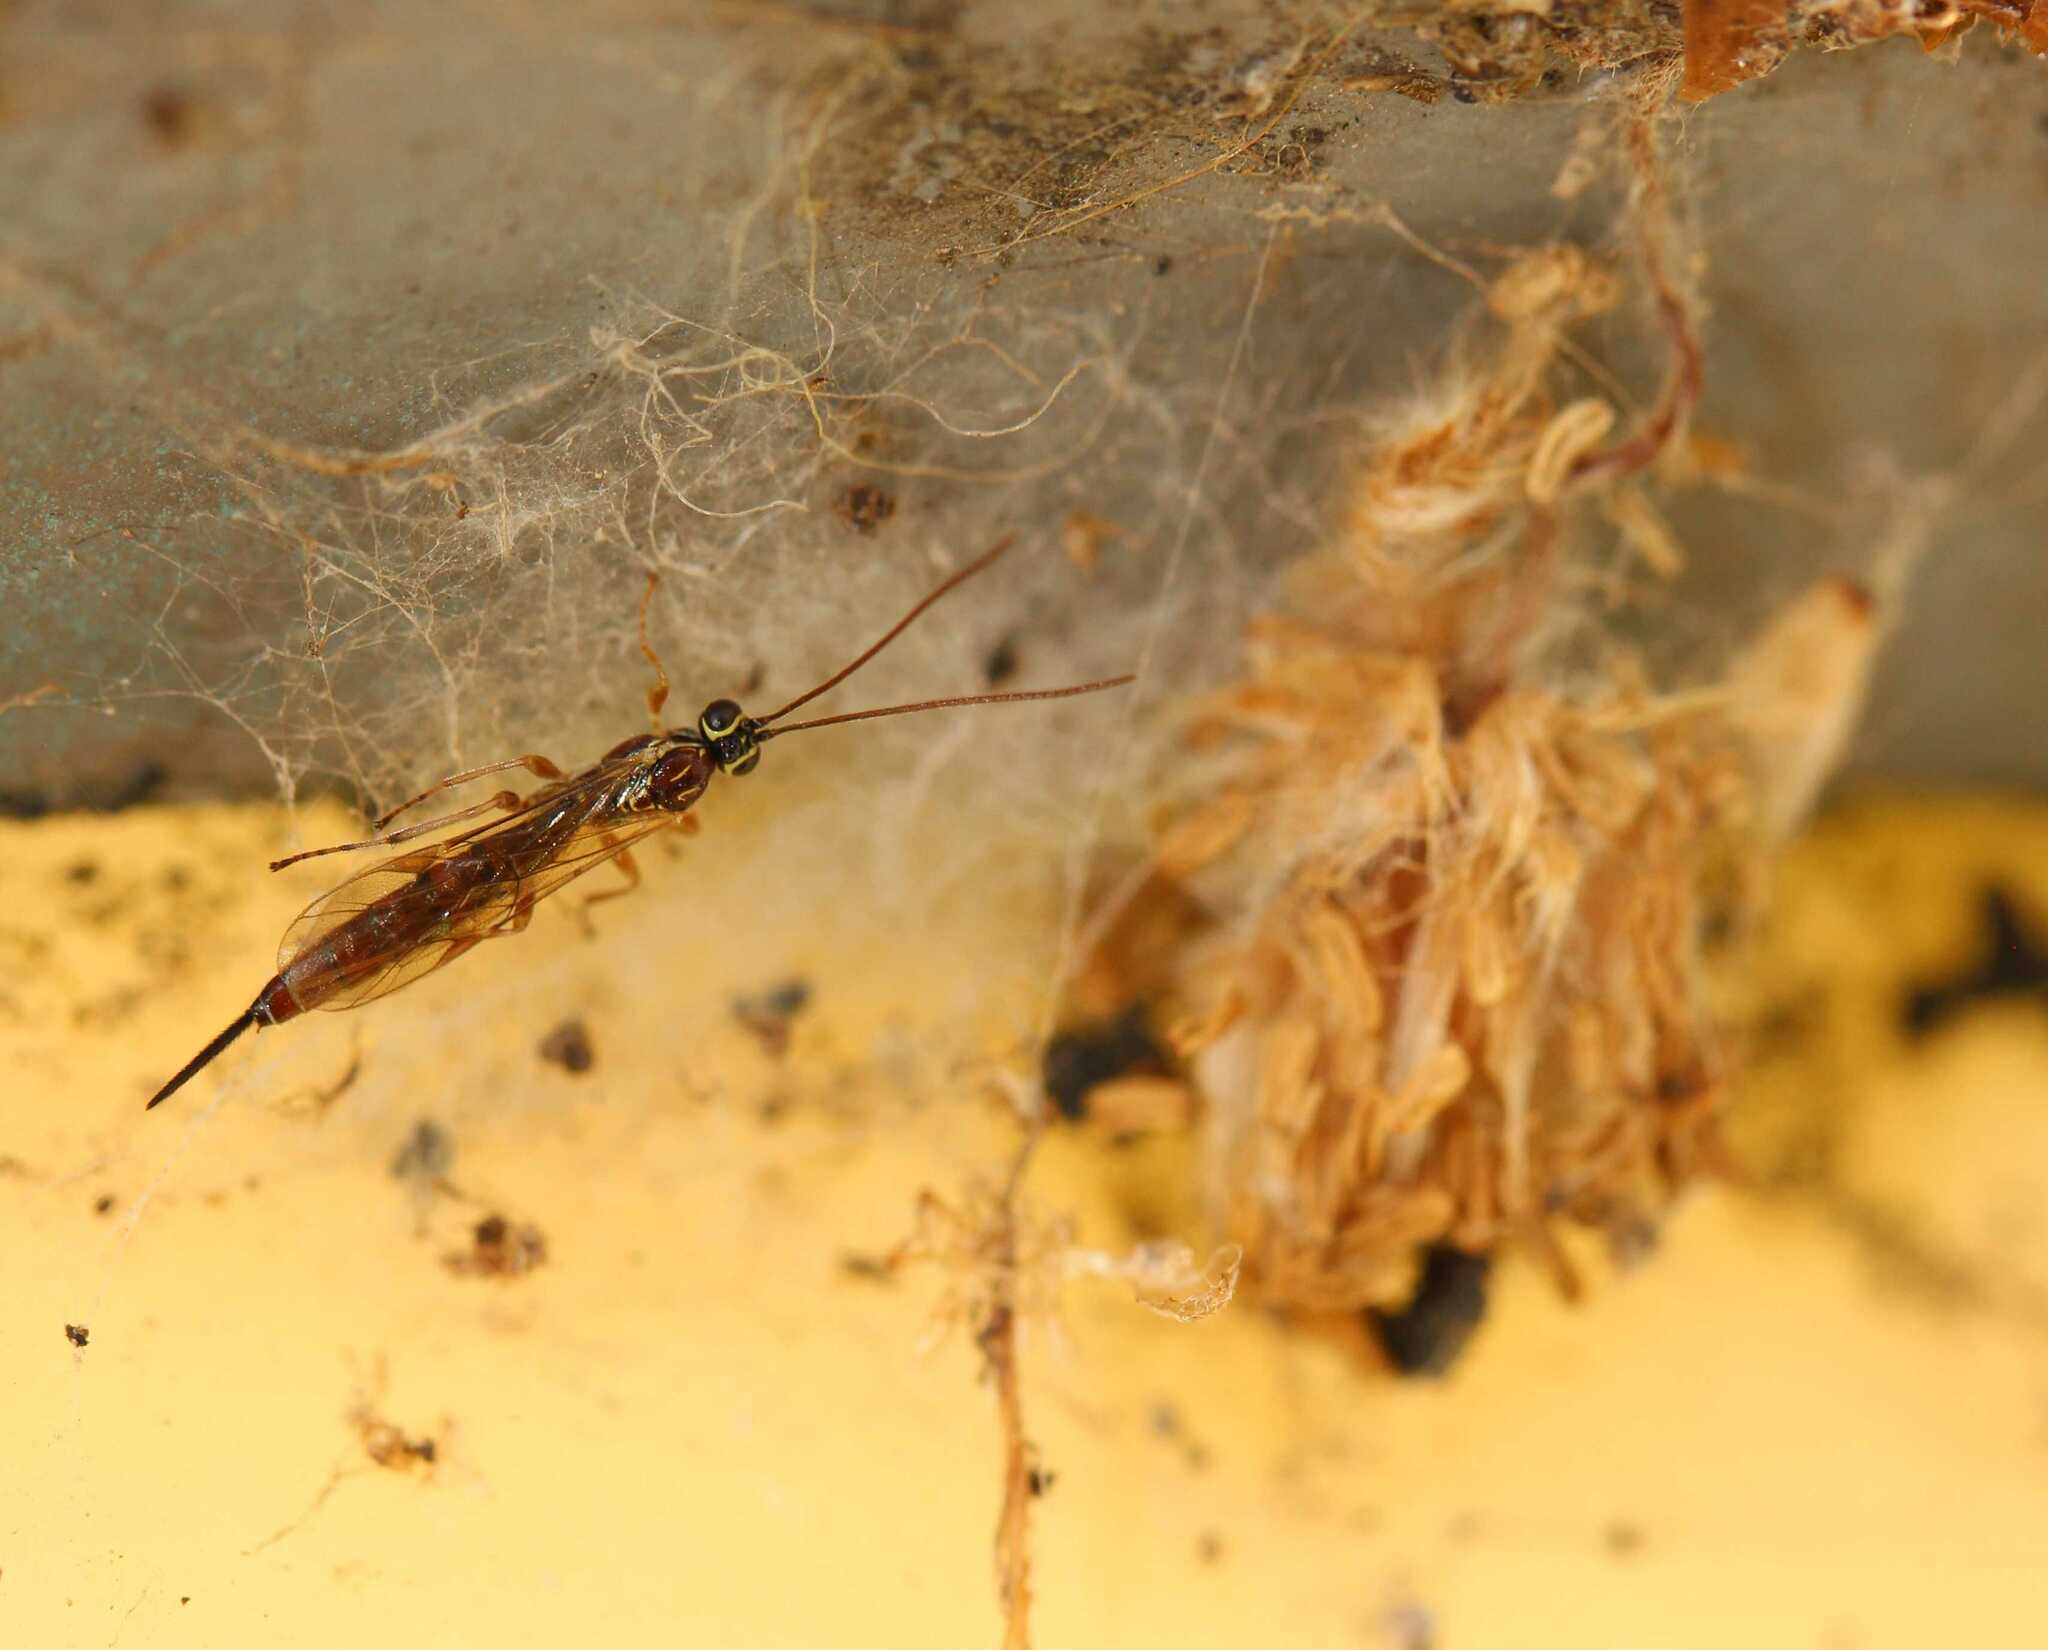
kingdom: Animalia
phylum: Arthropoda
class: Insecta
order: Hymenoptera
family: Ichneumonidae
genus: Tromatobia
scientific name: Tromatobia lineatoria
